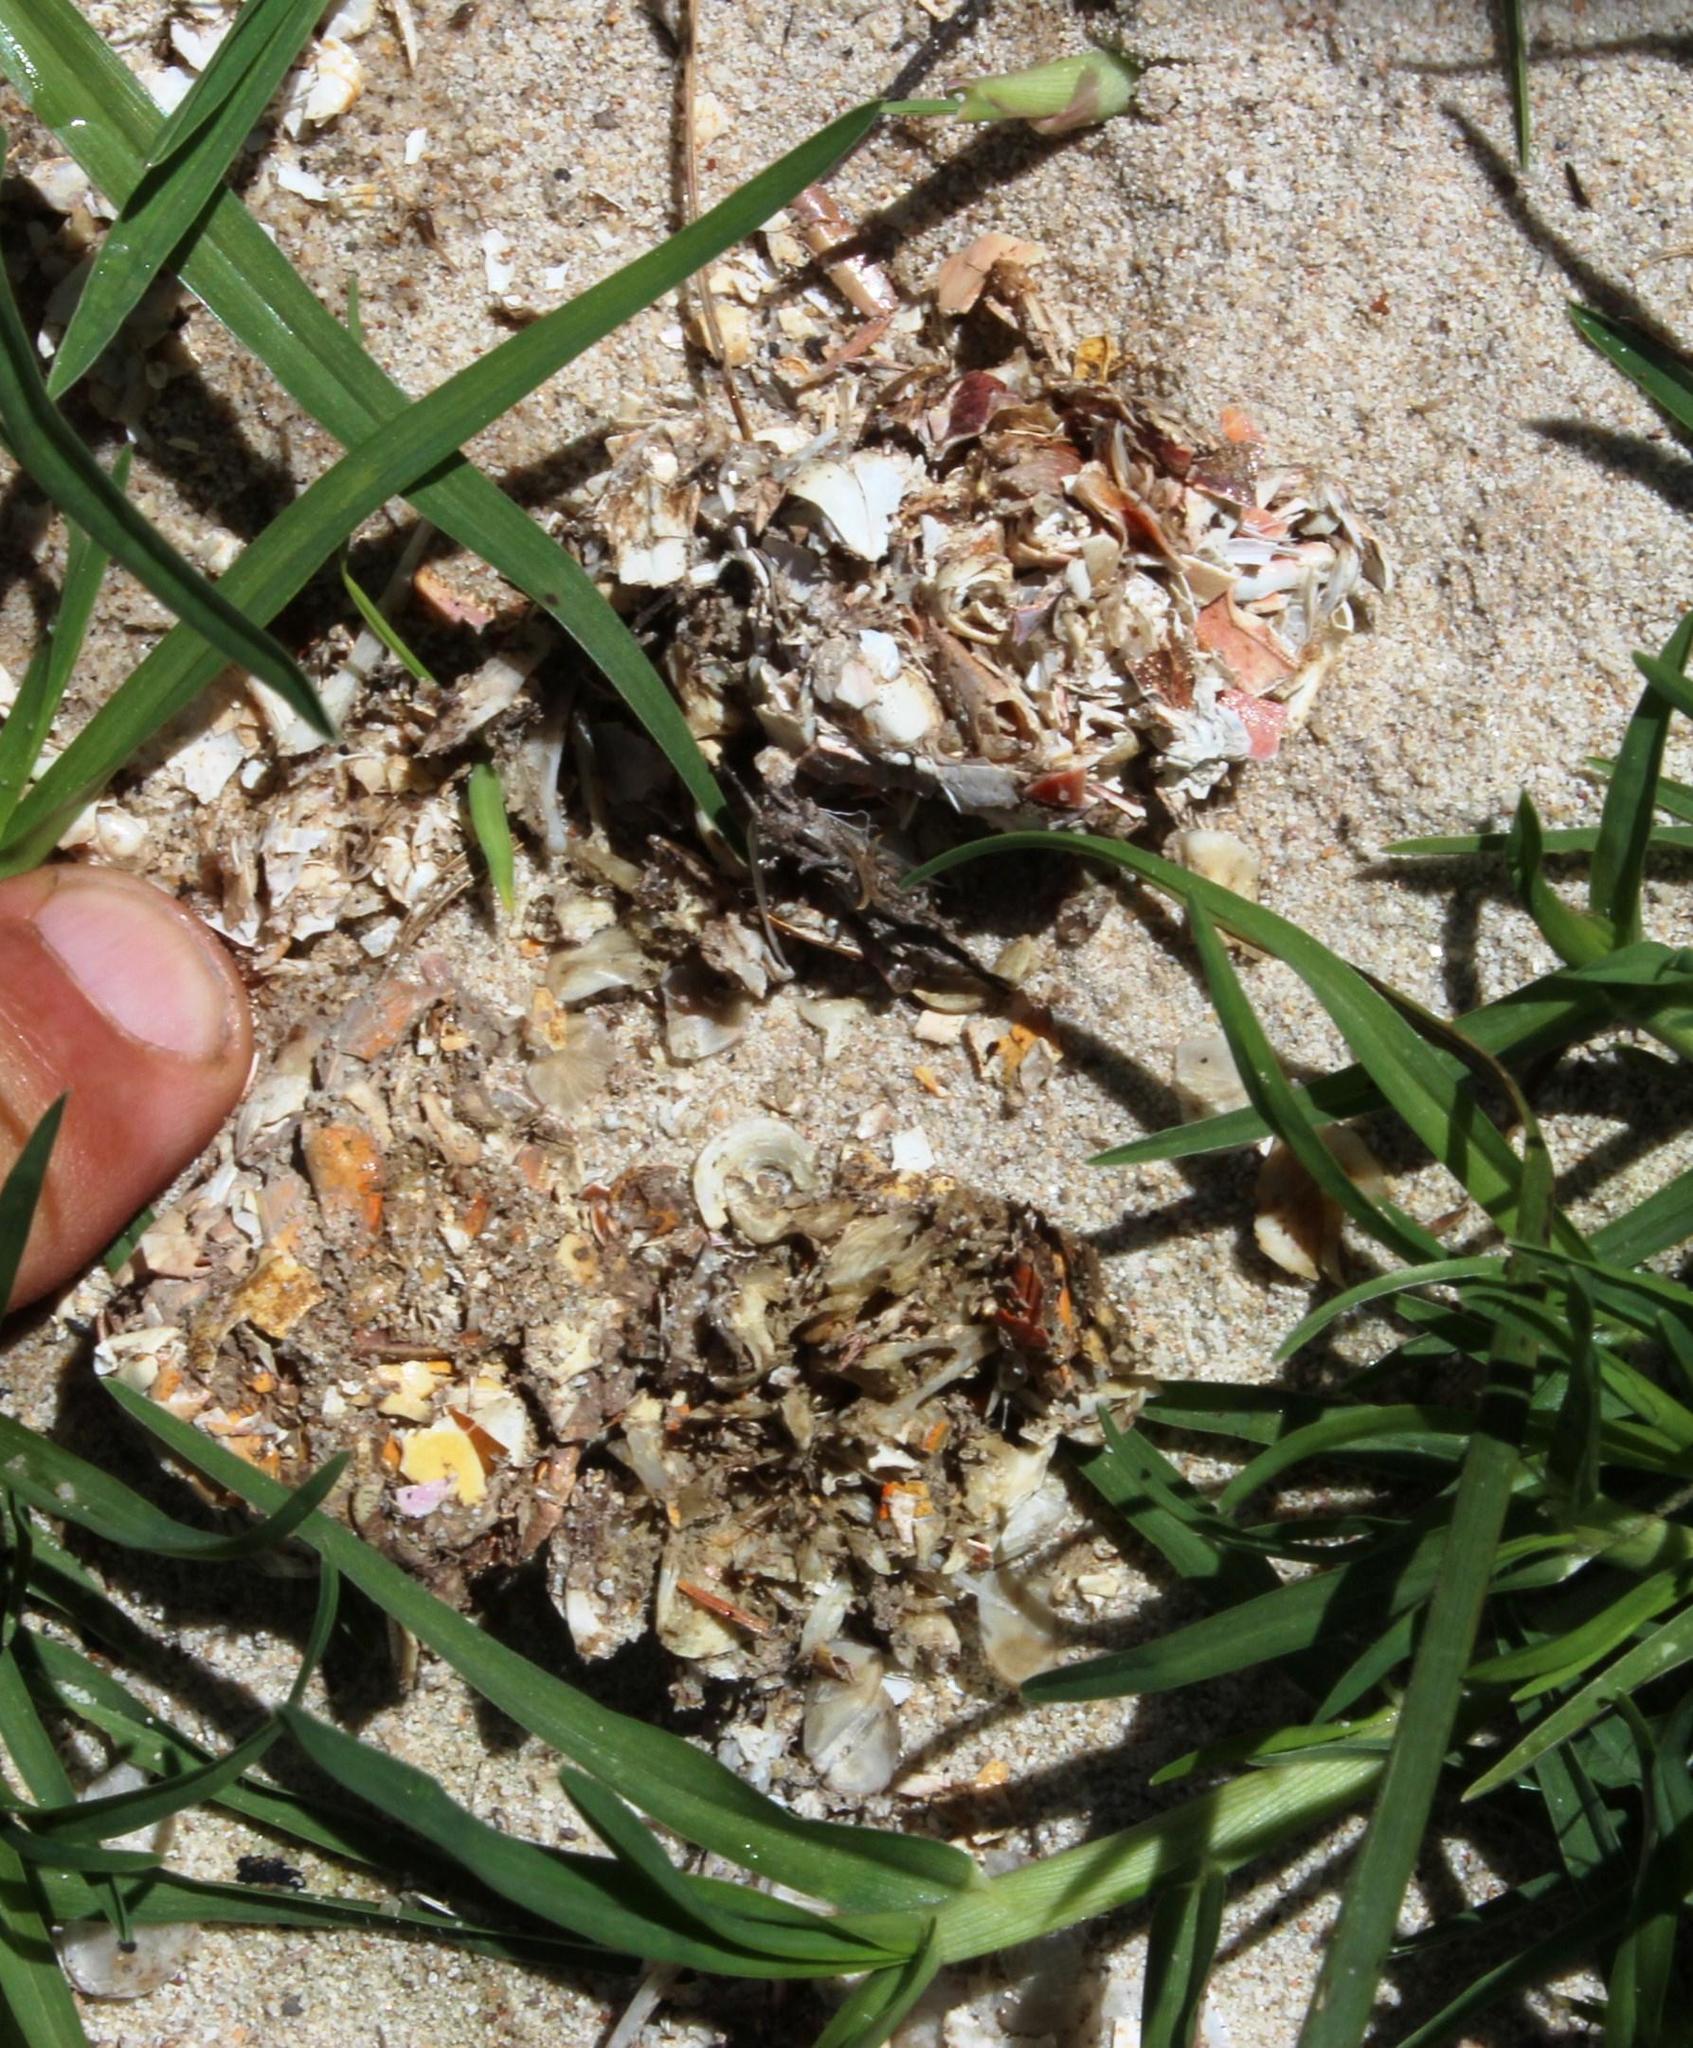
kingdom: Animalia
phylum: Chordata
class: Mammalia
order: Carnivora
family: Herpestidae
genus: Atilax
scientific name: Atilax paludinosus
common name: Marsh mongoose
